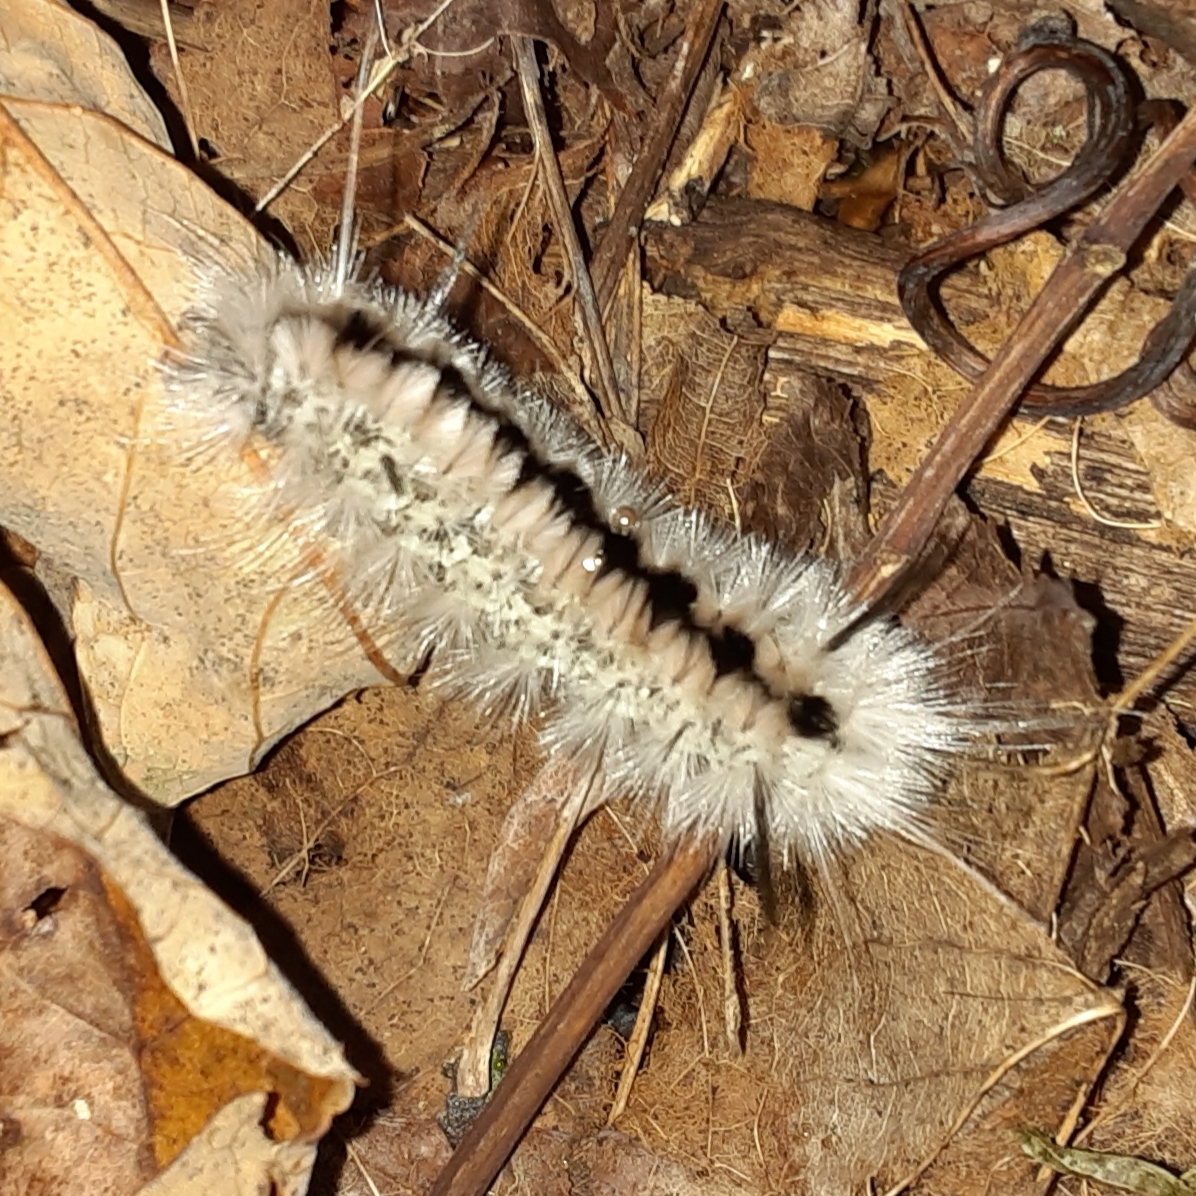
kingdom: Animalia
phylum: Arthropoda
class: Insecta
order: Lepidoptera
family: Erebidae
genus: Lophocampa
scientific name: Lophocampa caryae
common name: Hickory tussock moth
